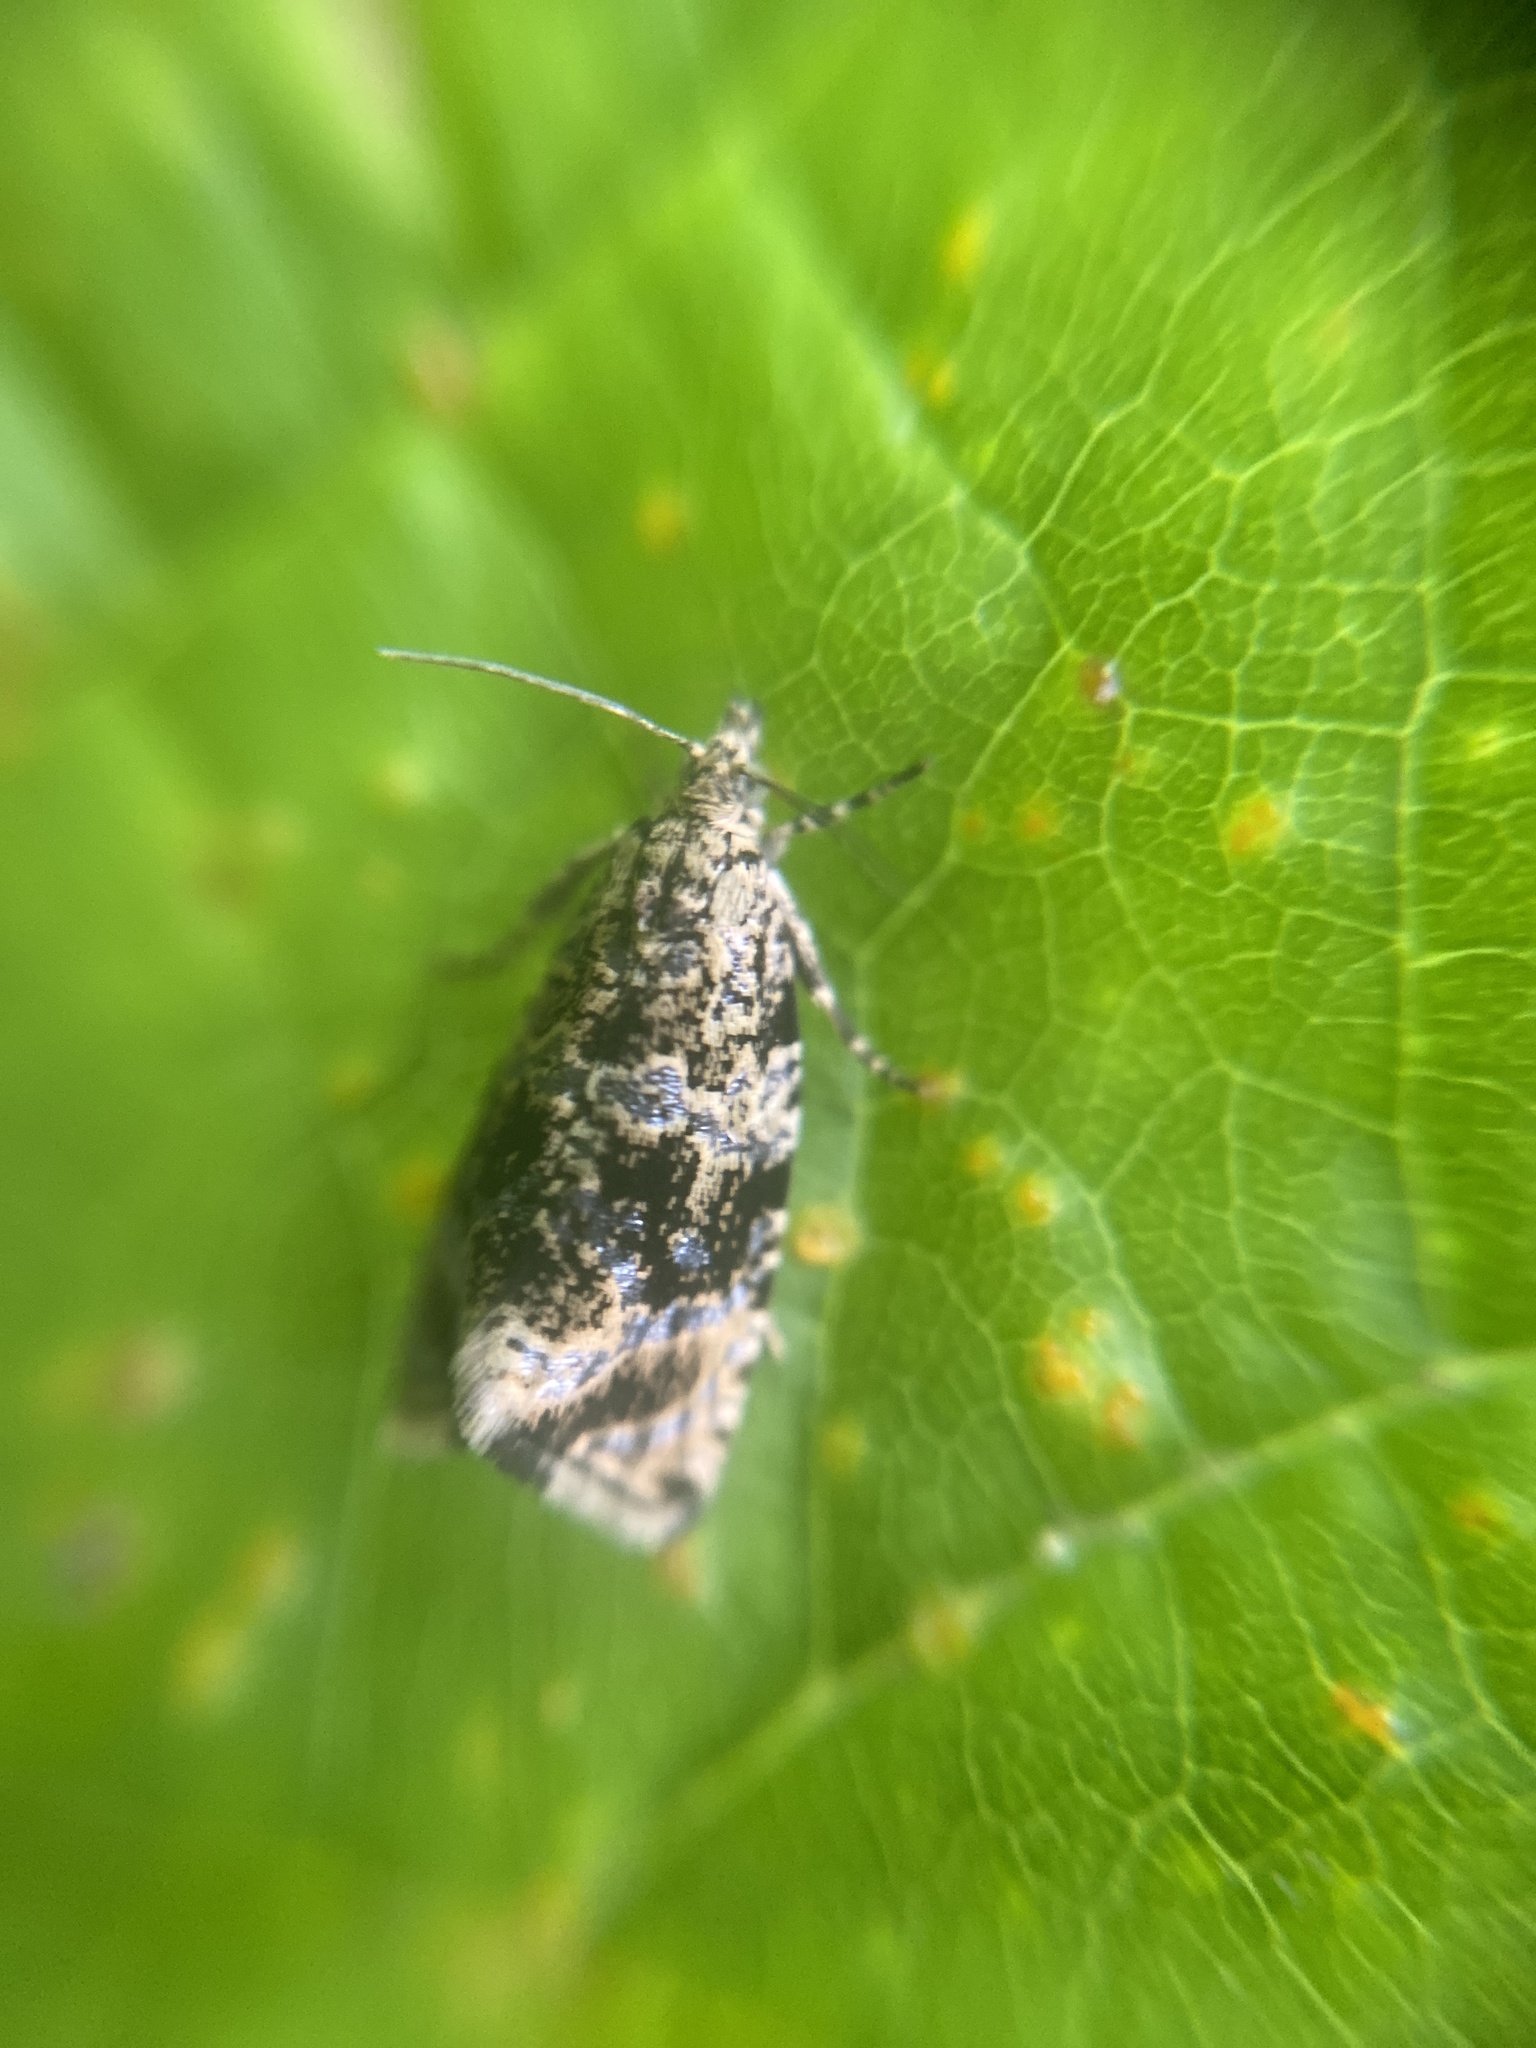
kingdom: Animalia
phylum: Arthropoda
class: Insecta
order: Lepidoptera
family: Tortricidae
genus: Syricoris
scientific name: Syricoris lacunana
